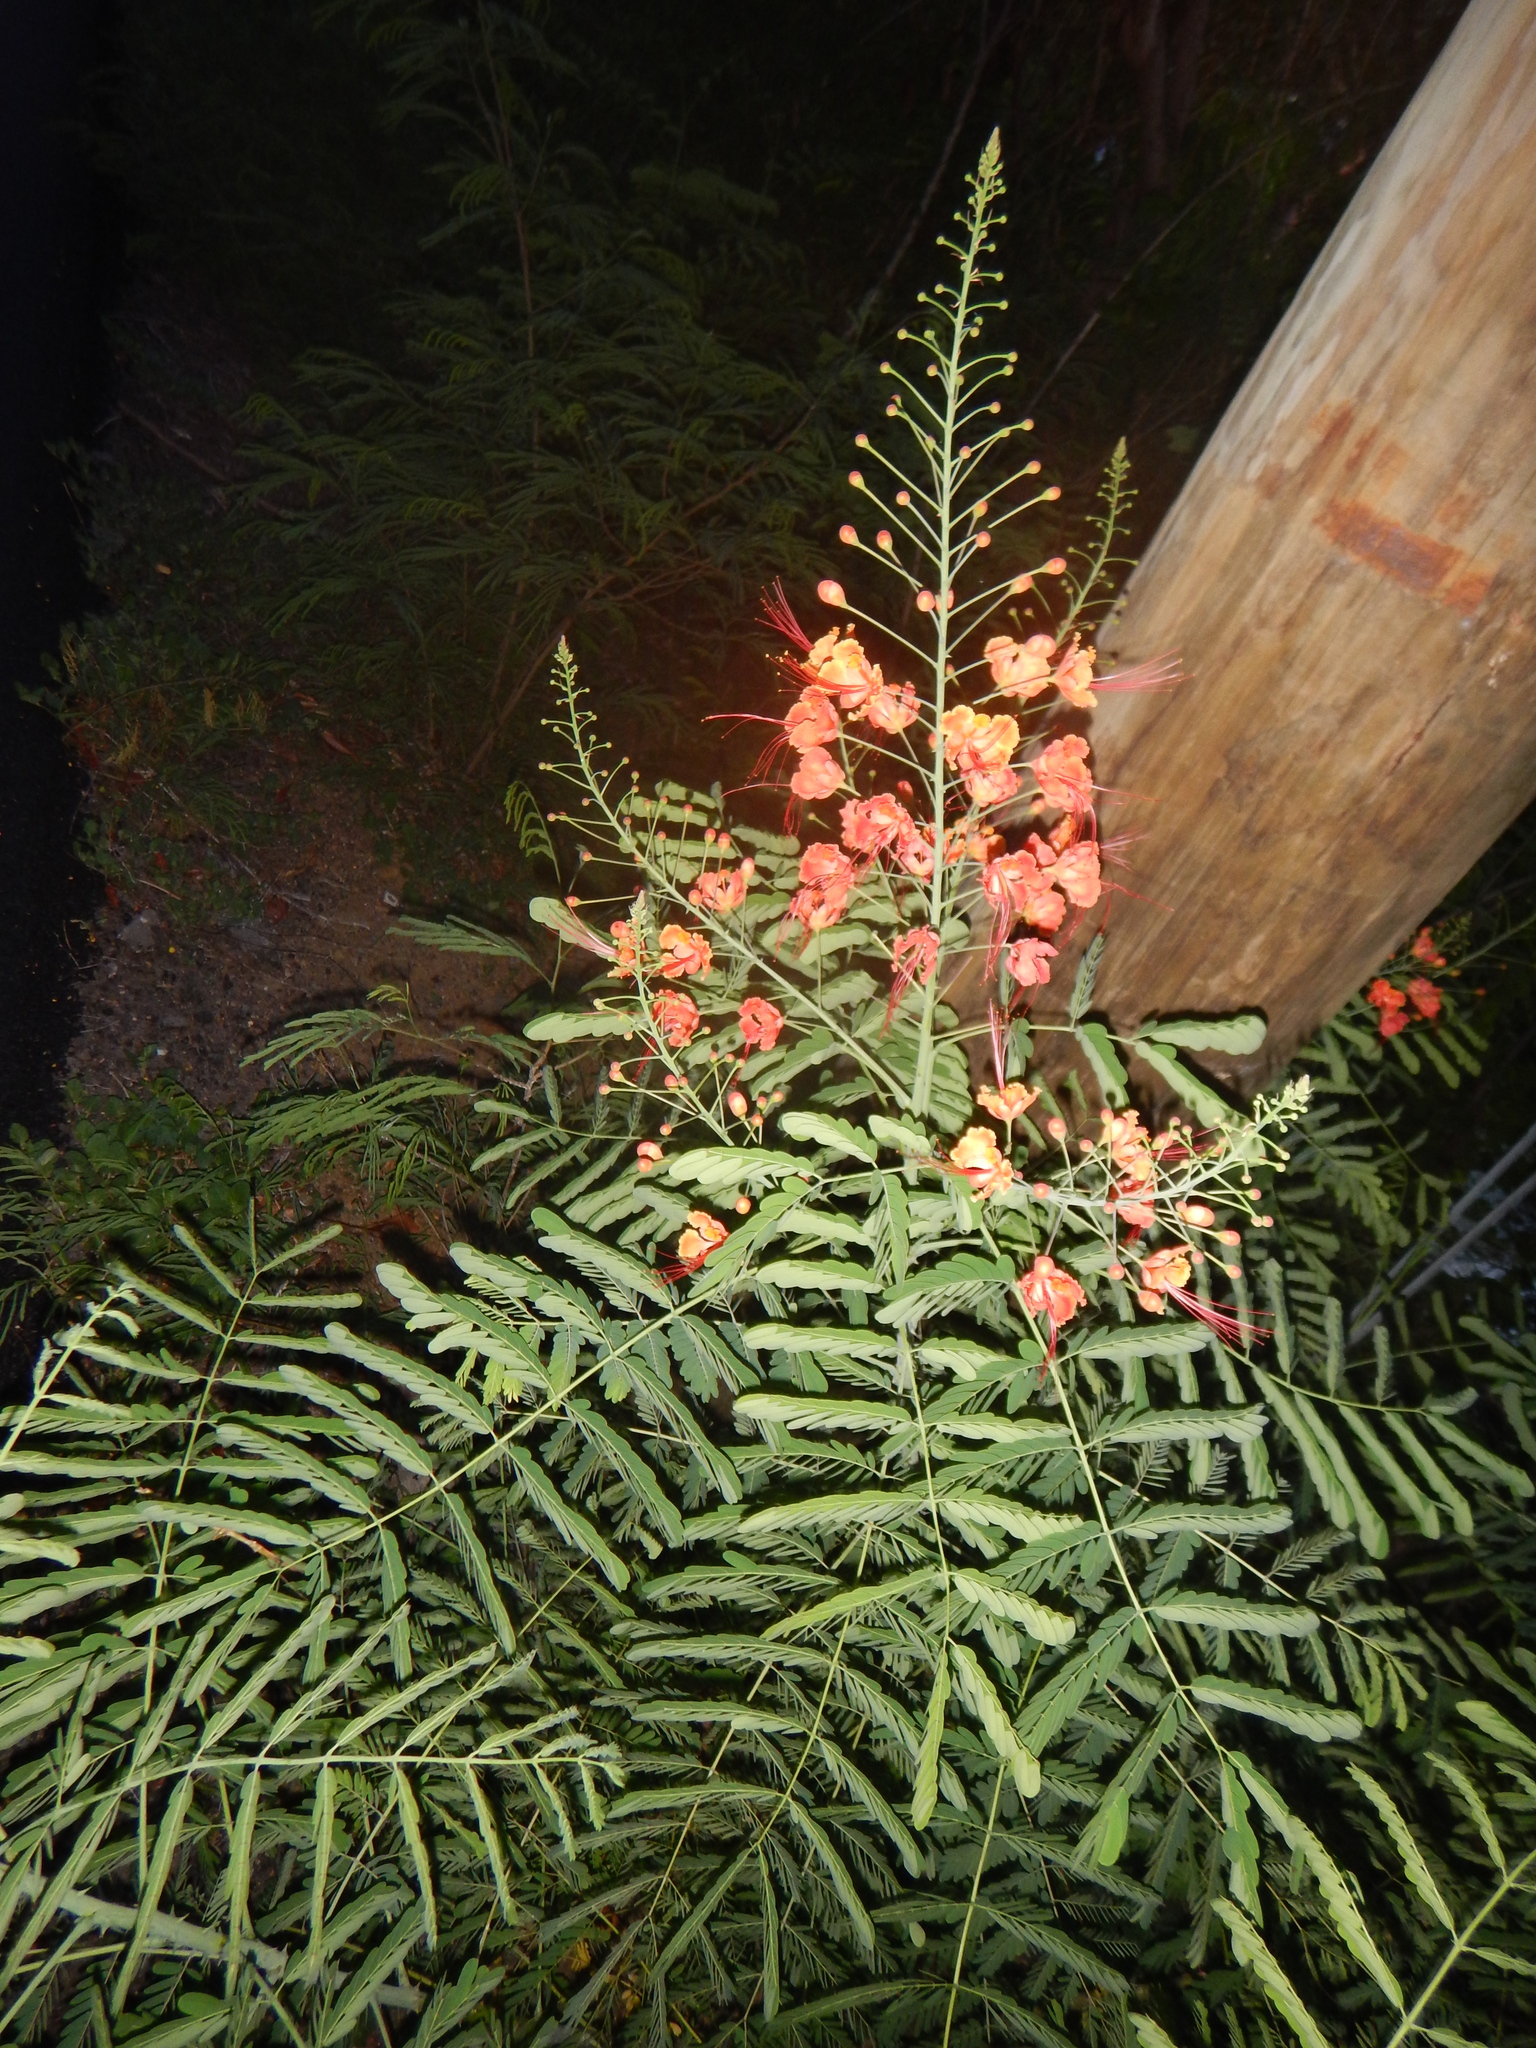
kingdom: Plantae
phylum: Tracheophyta
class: Magnoliopsida
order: Fabales
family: Fabaceae
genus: Caesalpinia
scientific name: Caesalpinia pulcherrima
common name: Pride-of-barbados
